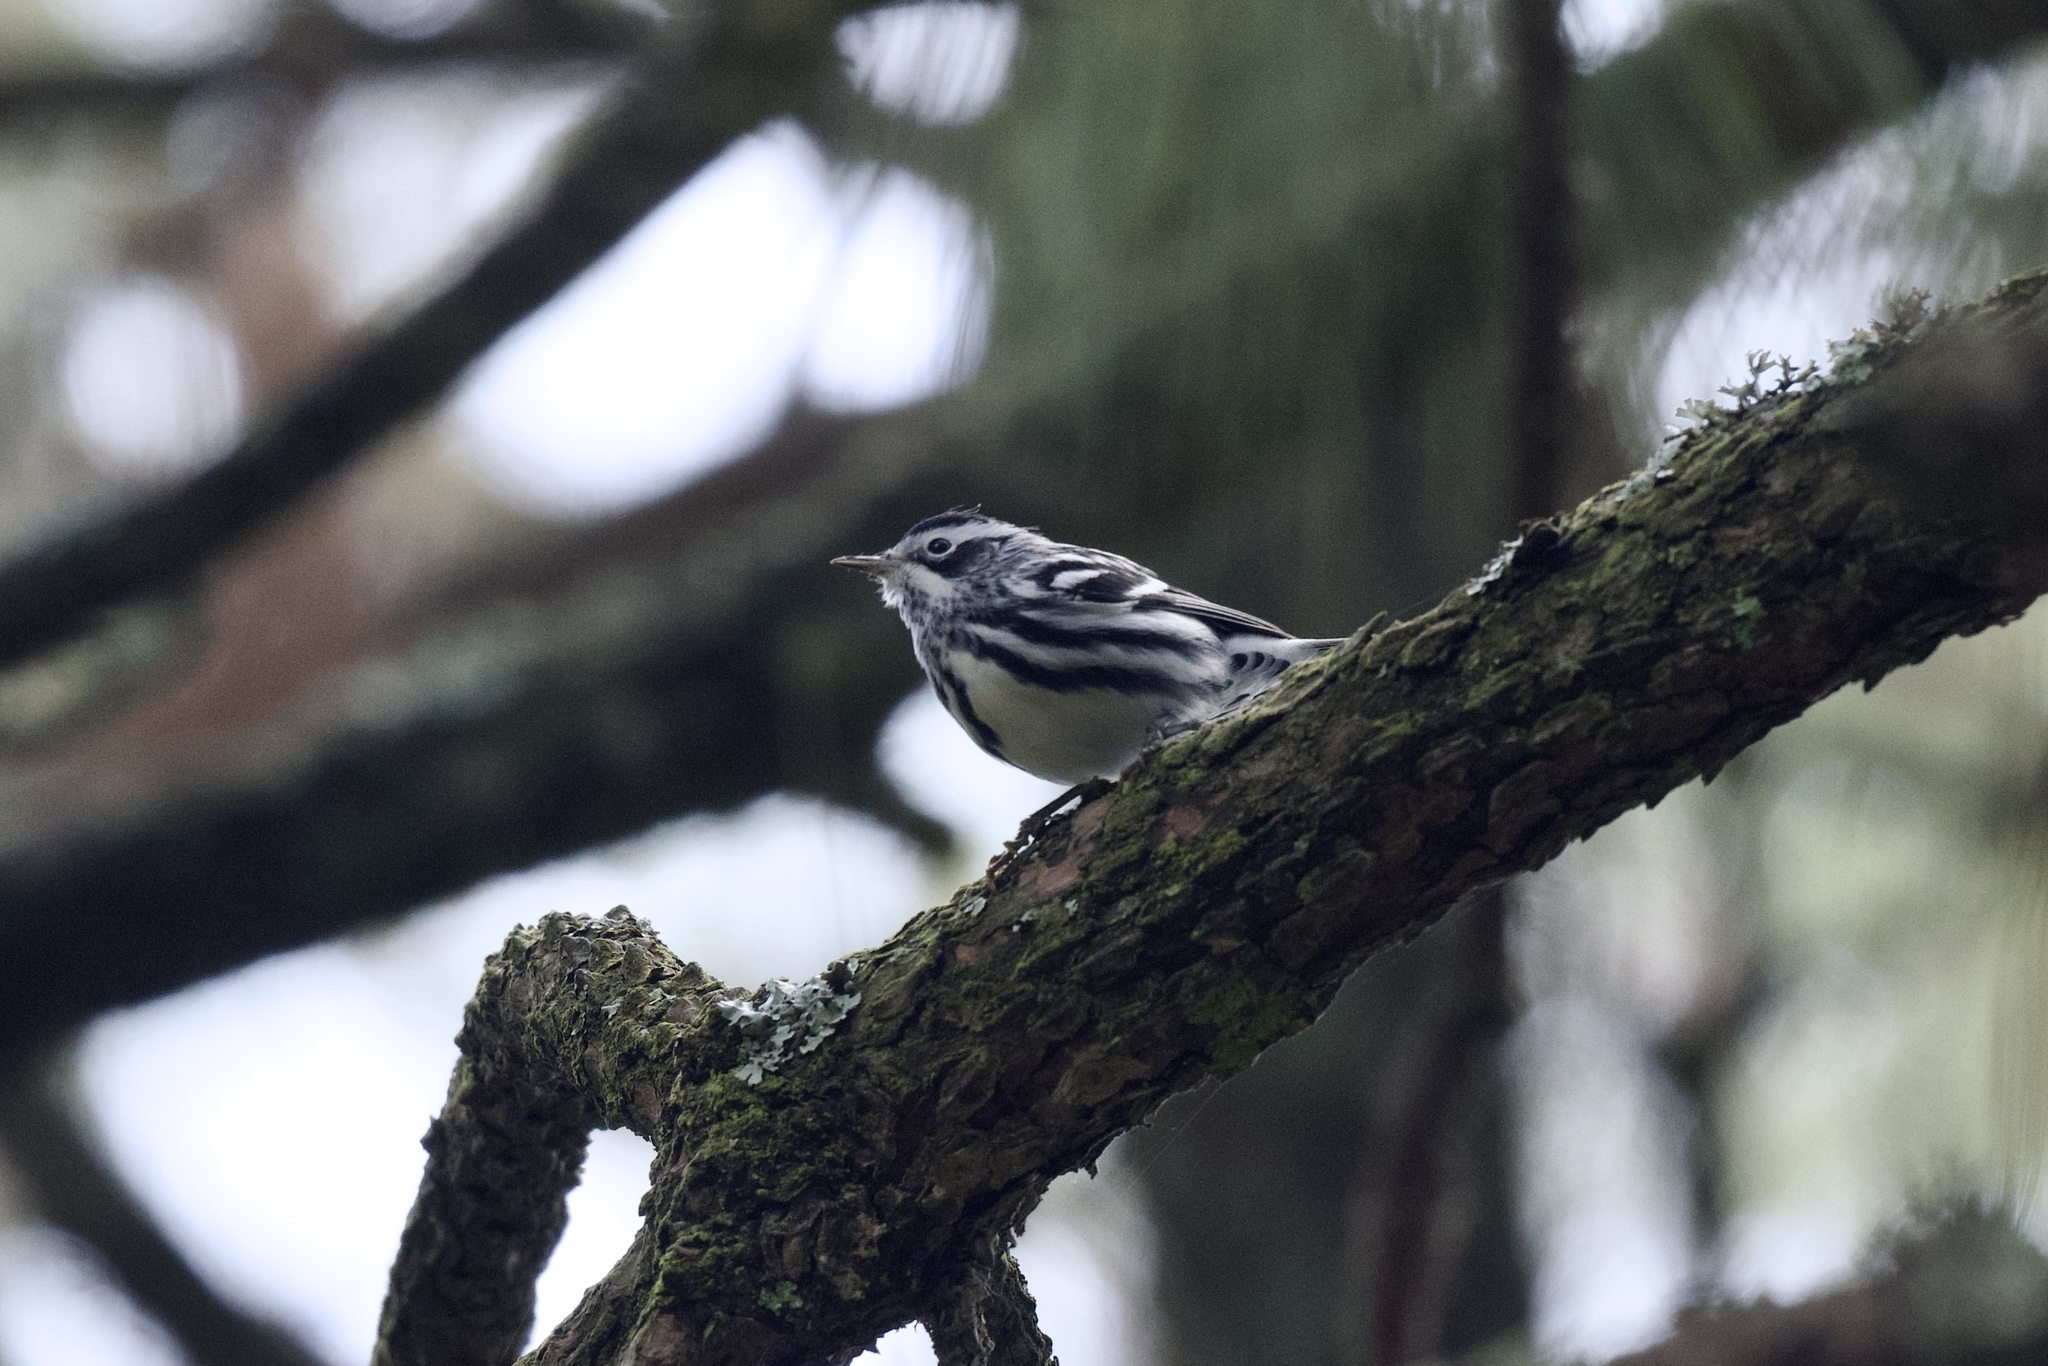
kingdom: Animalia
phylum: Chordata
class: Aves
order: Passeriformes
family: Parulidae
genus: Mniotilta
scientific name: Mniotilta varia
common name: Black-and-white warbler
